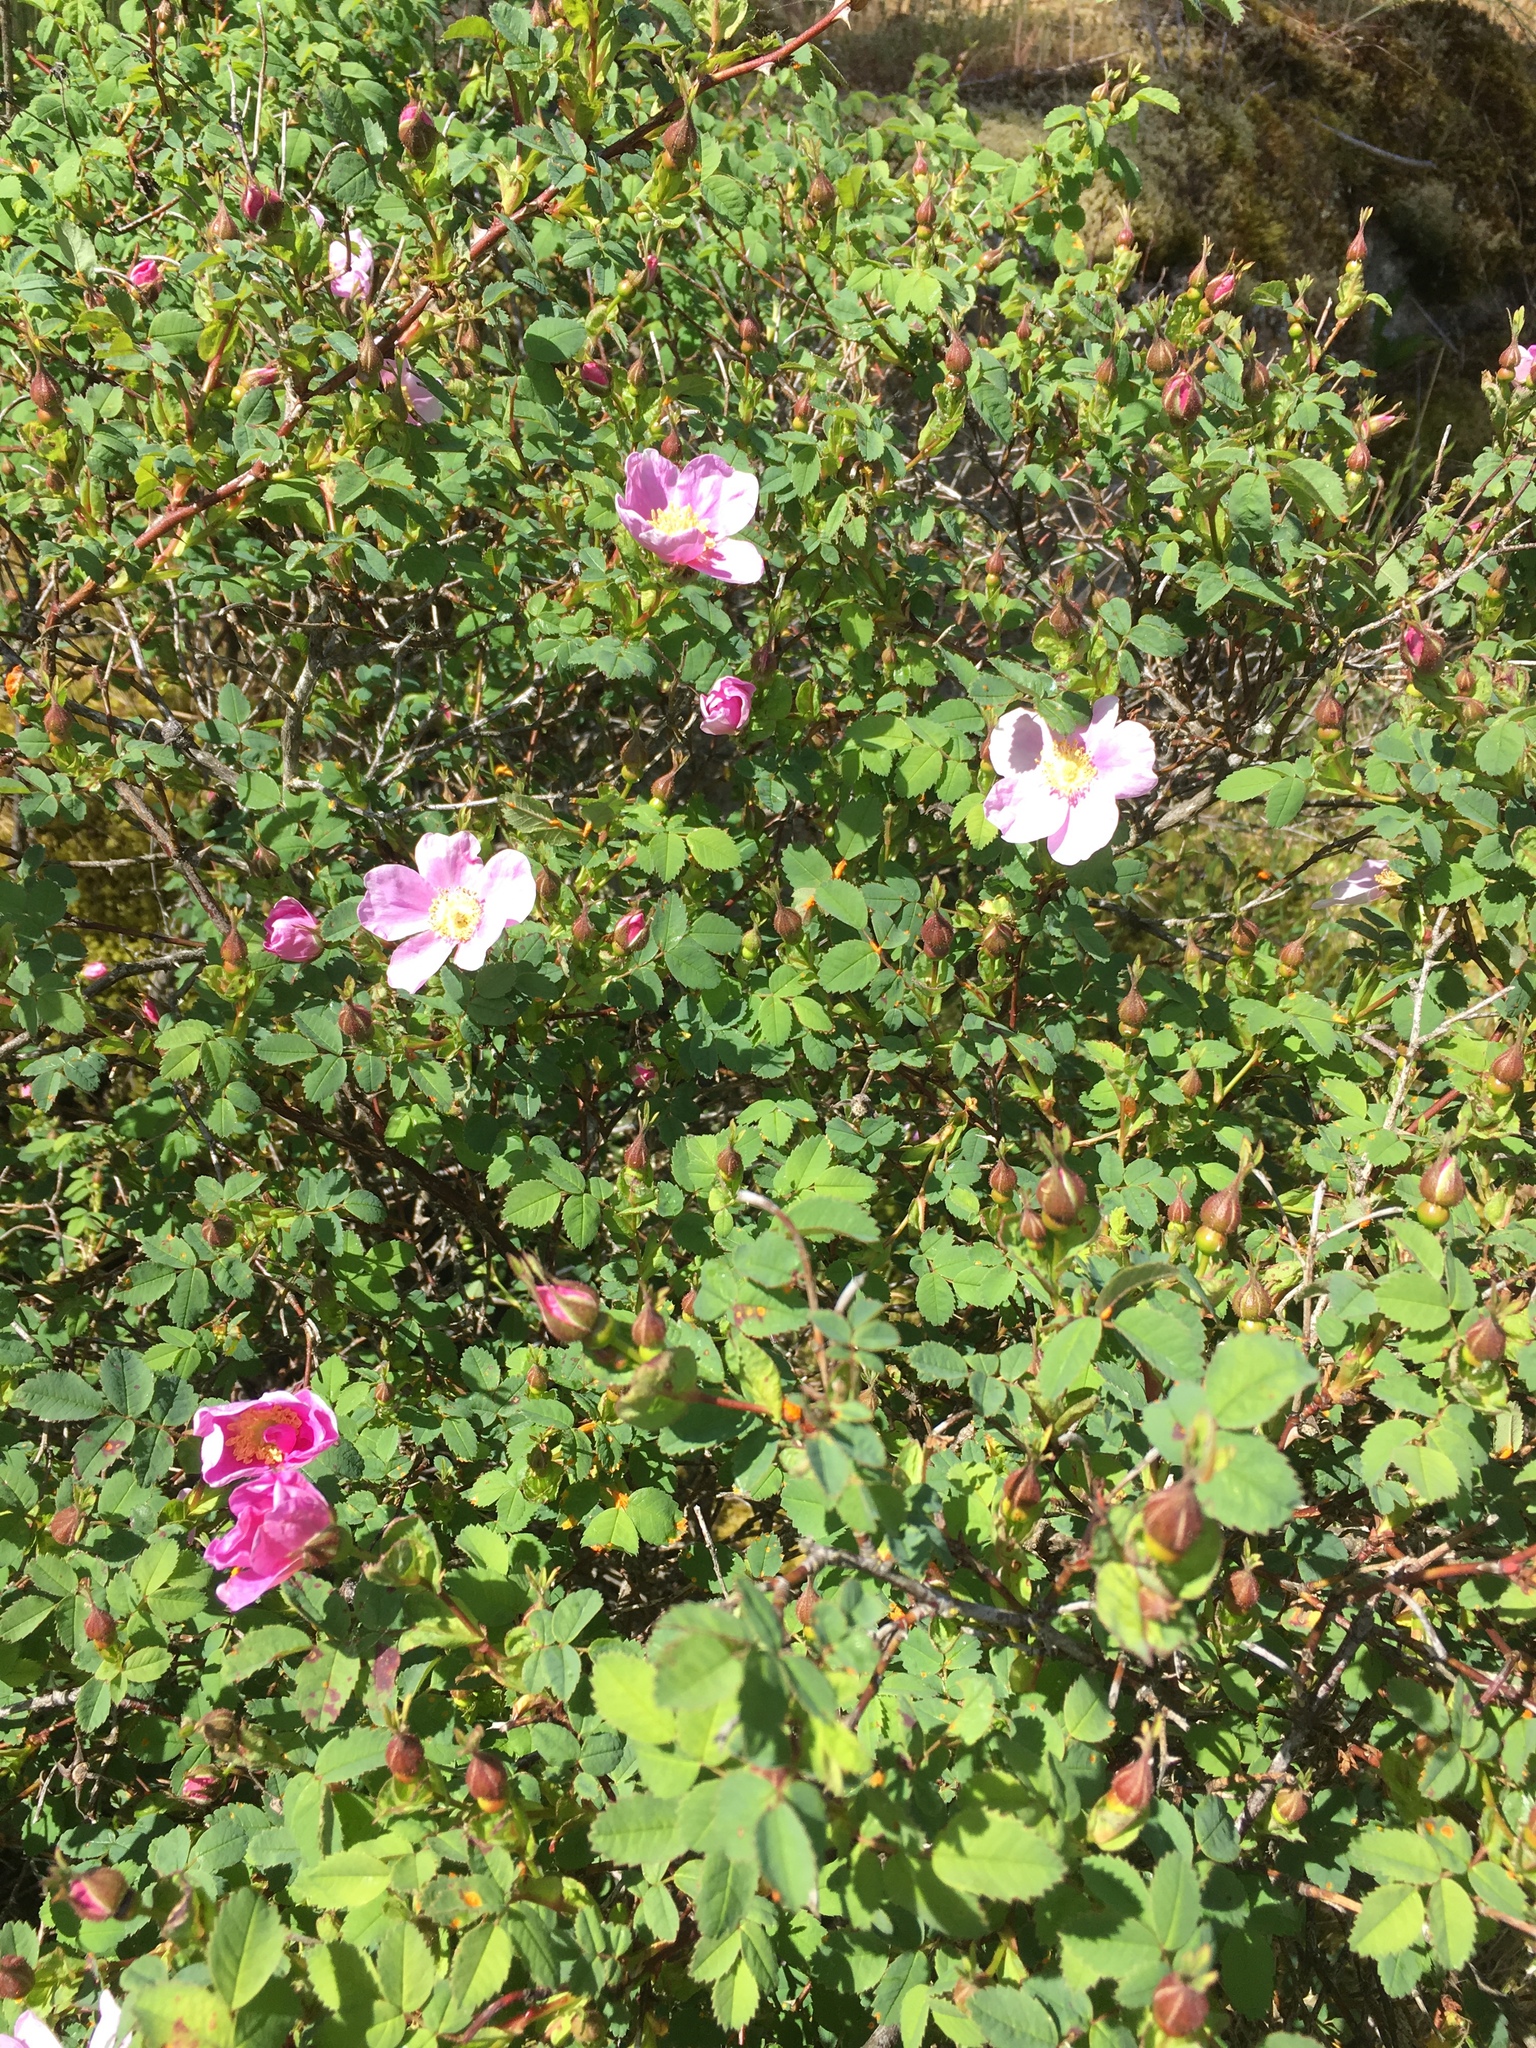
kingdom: Plantae
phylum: Tracheophyta
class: Magnoliopsida
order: Rosales
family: Rosaceae
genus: Rosa
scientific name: Rosa nutkana
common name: Nootka rose
